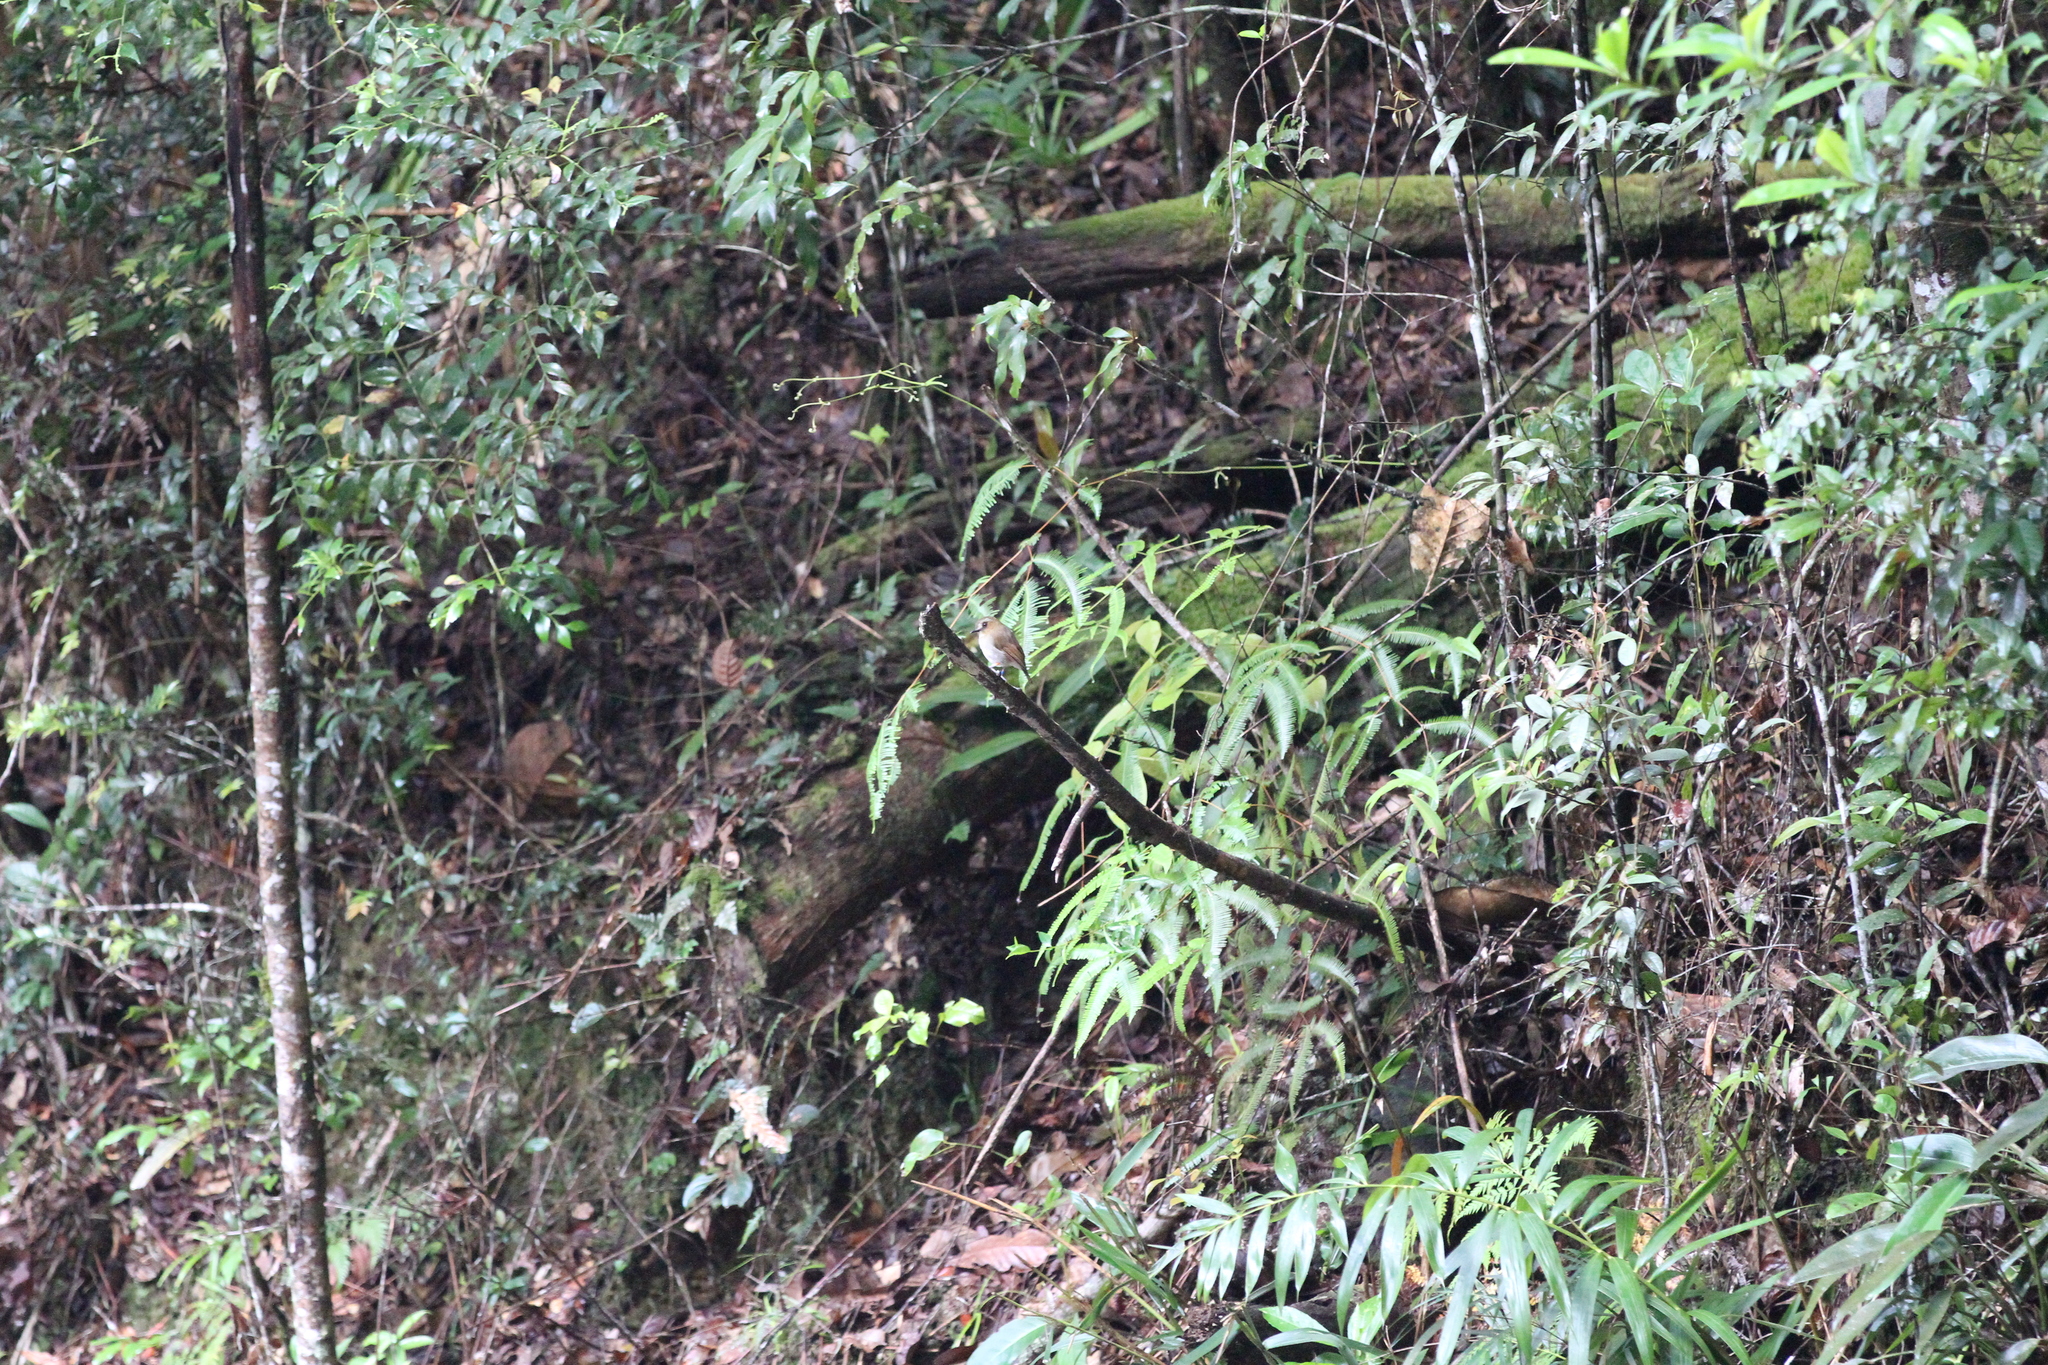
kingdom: Animalia
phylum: Chordata
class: Aves
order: Passeriformes
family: Muscicapidae
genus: Rhinomyias
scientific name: Rhinomyias gularis
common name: Eyebrowed jungle flycatcher
